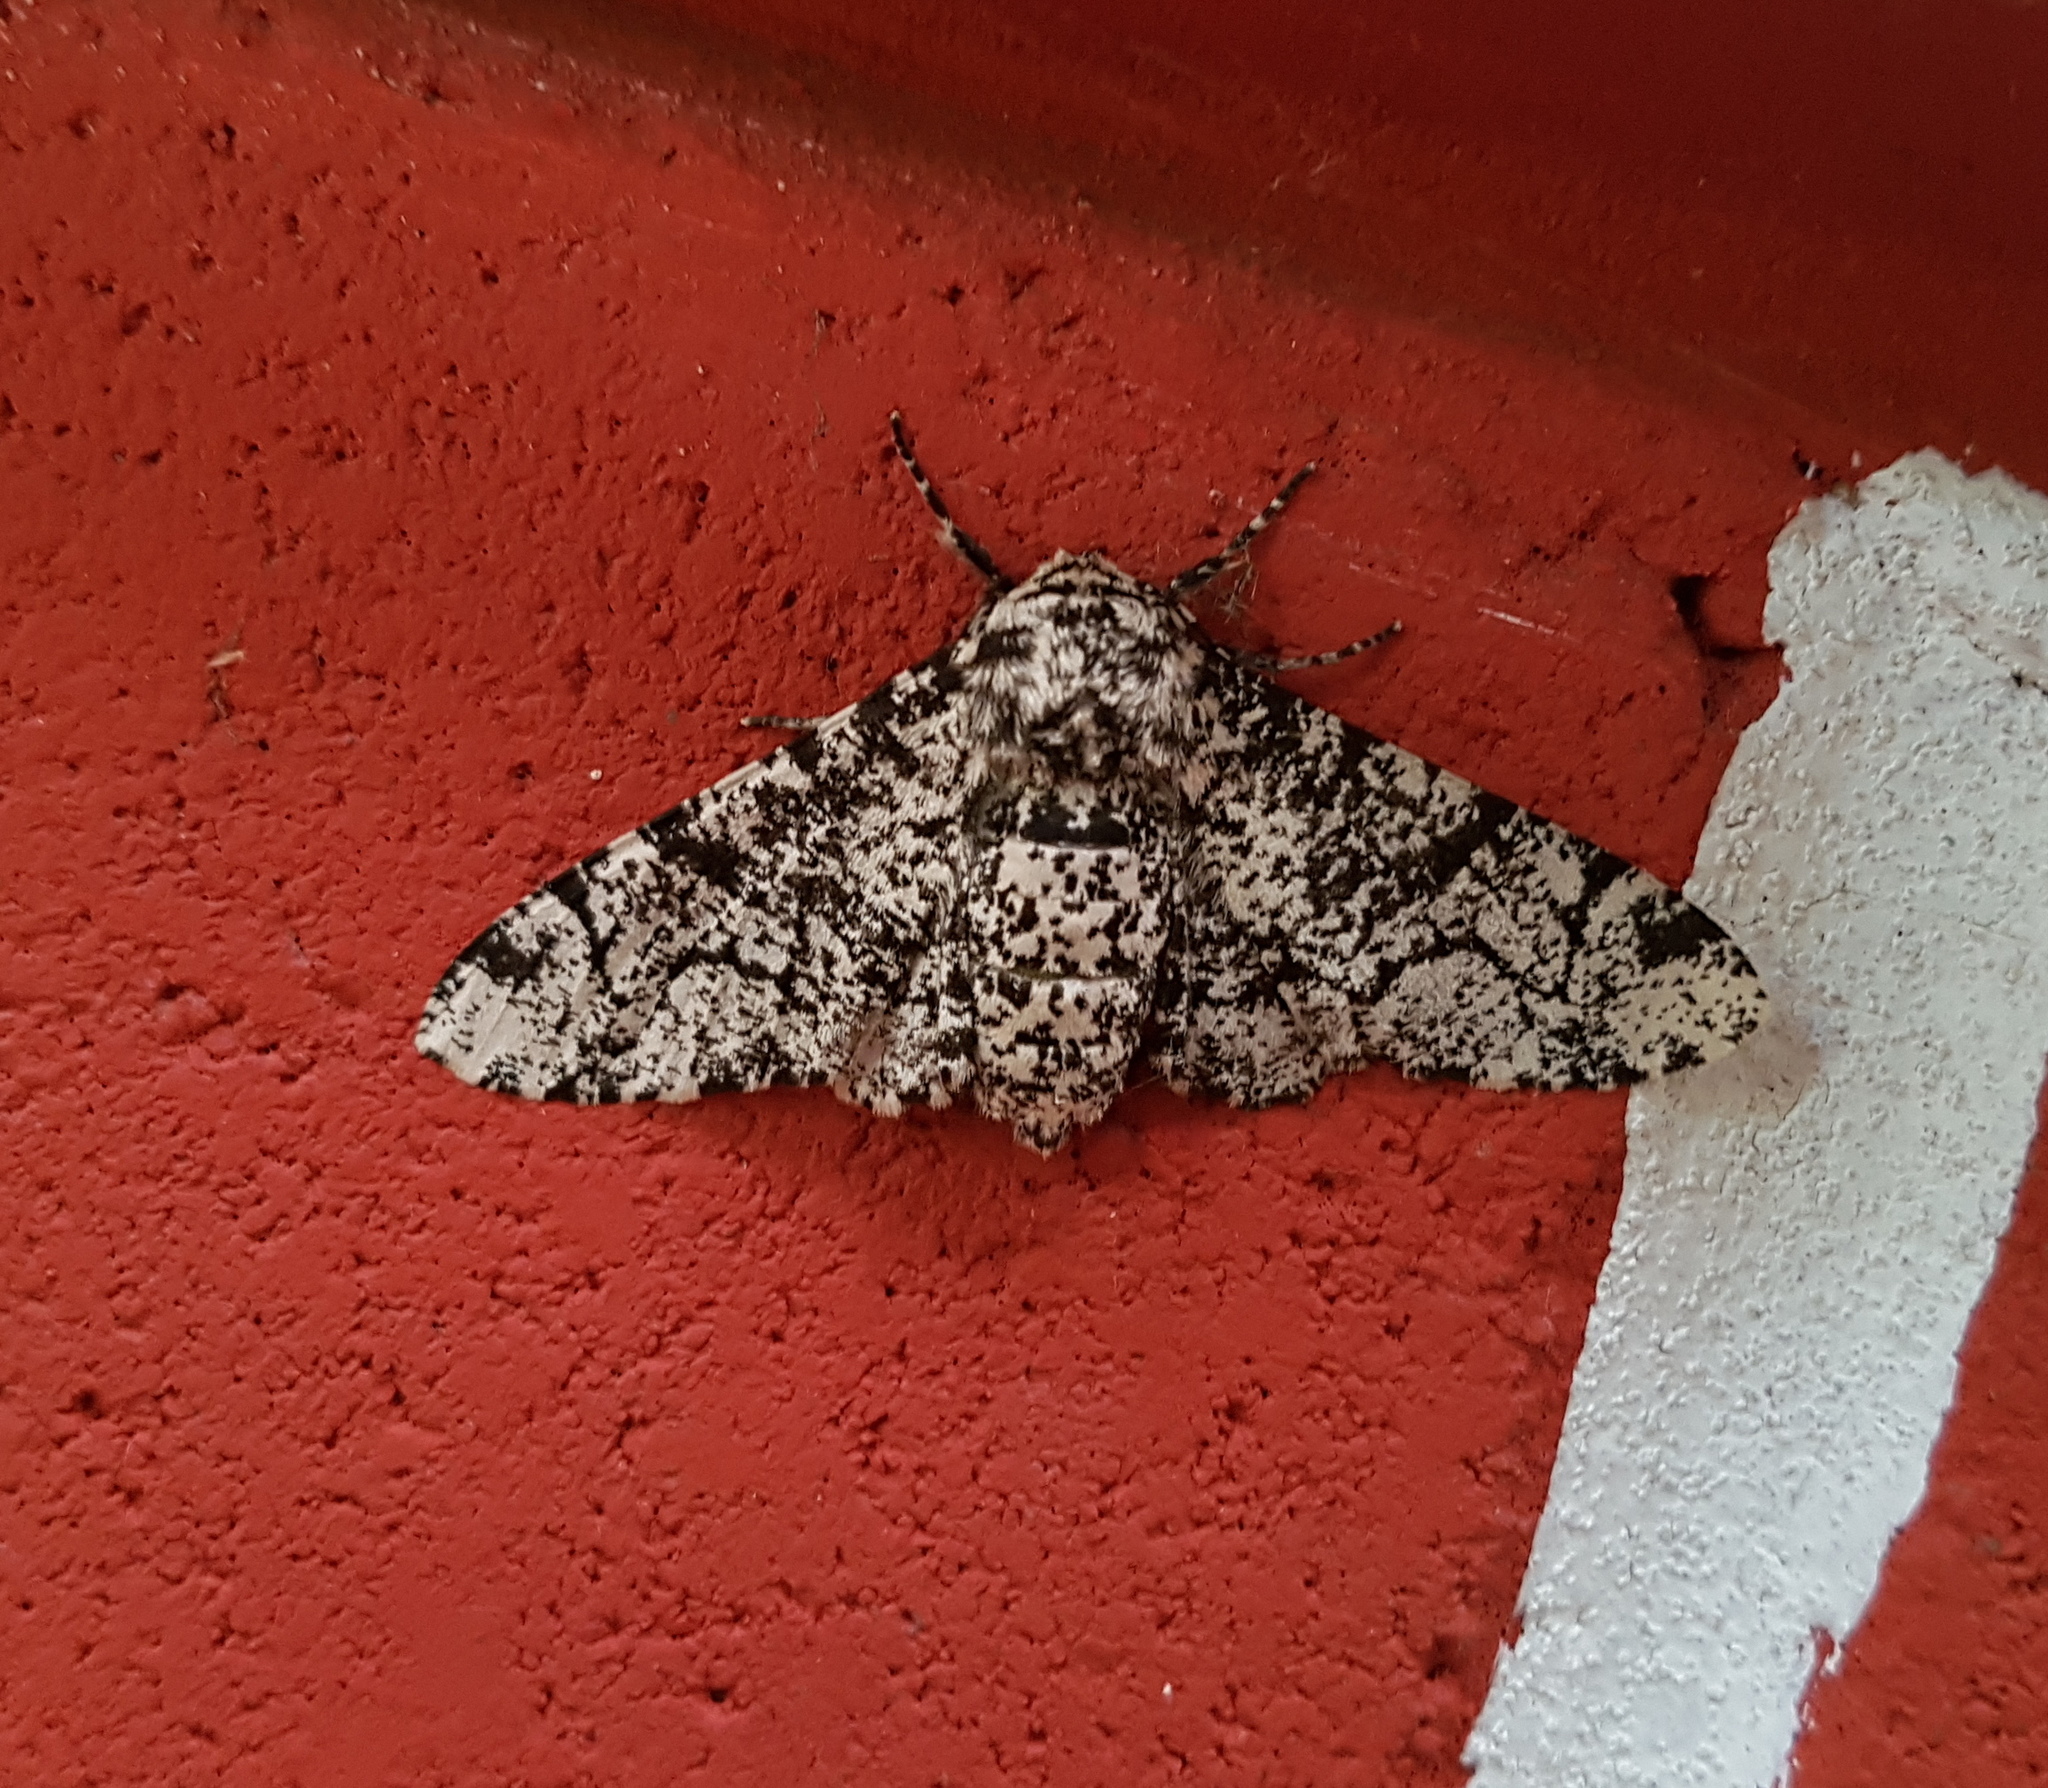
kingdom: Animalia
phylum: Arthropoda
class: Insecta
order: Lepidoptera
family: Geometridae
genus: Biston
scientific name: Biston betularia
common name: Peppered moth
